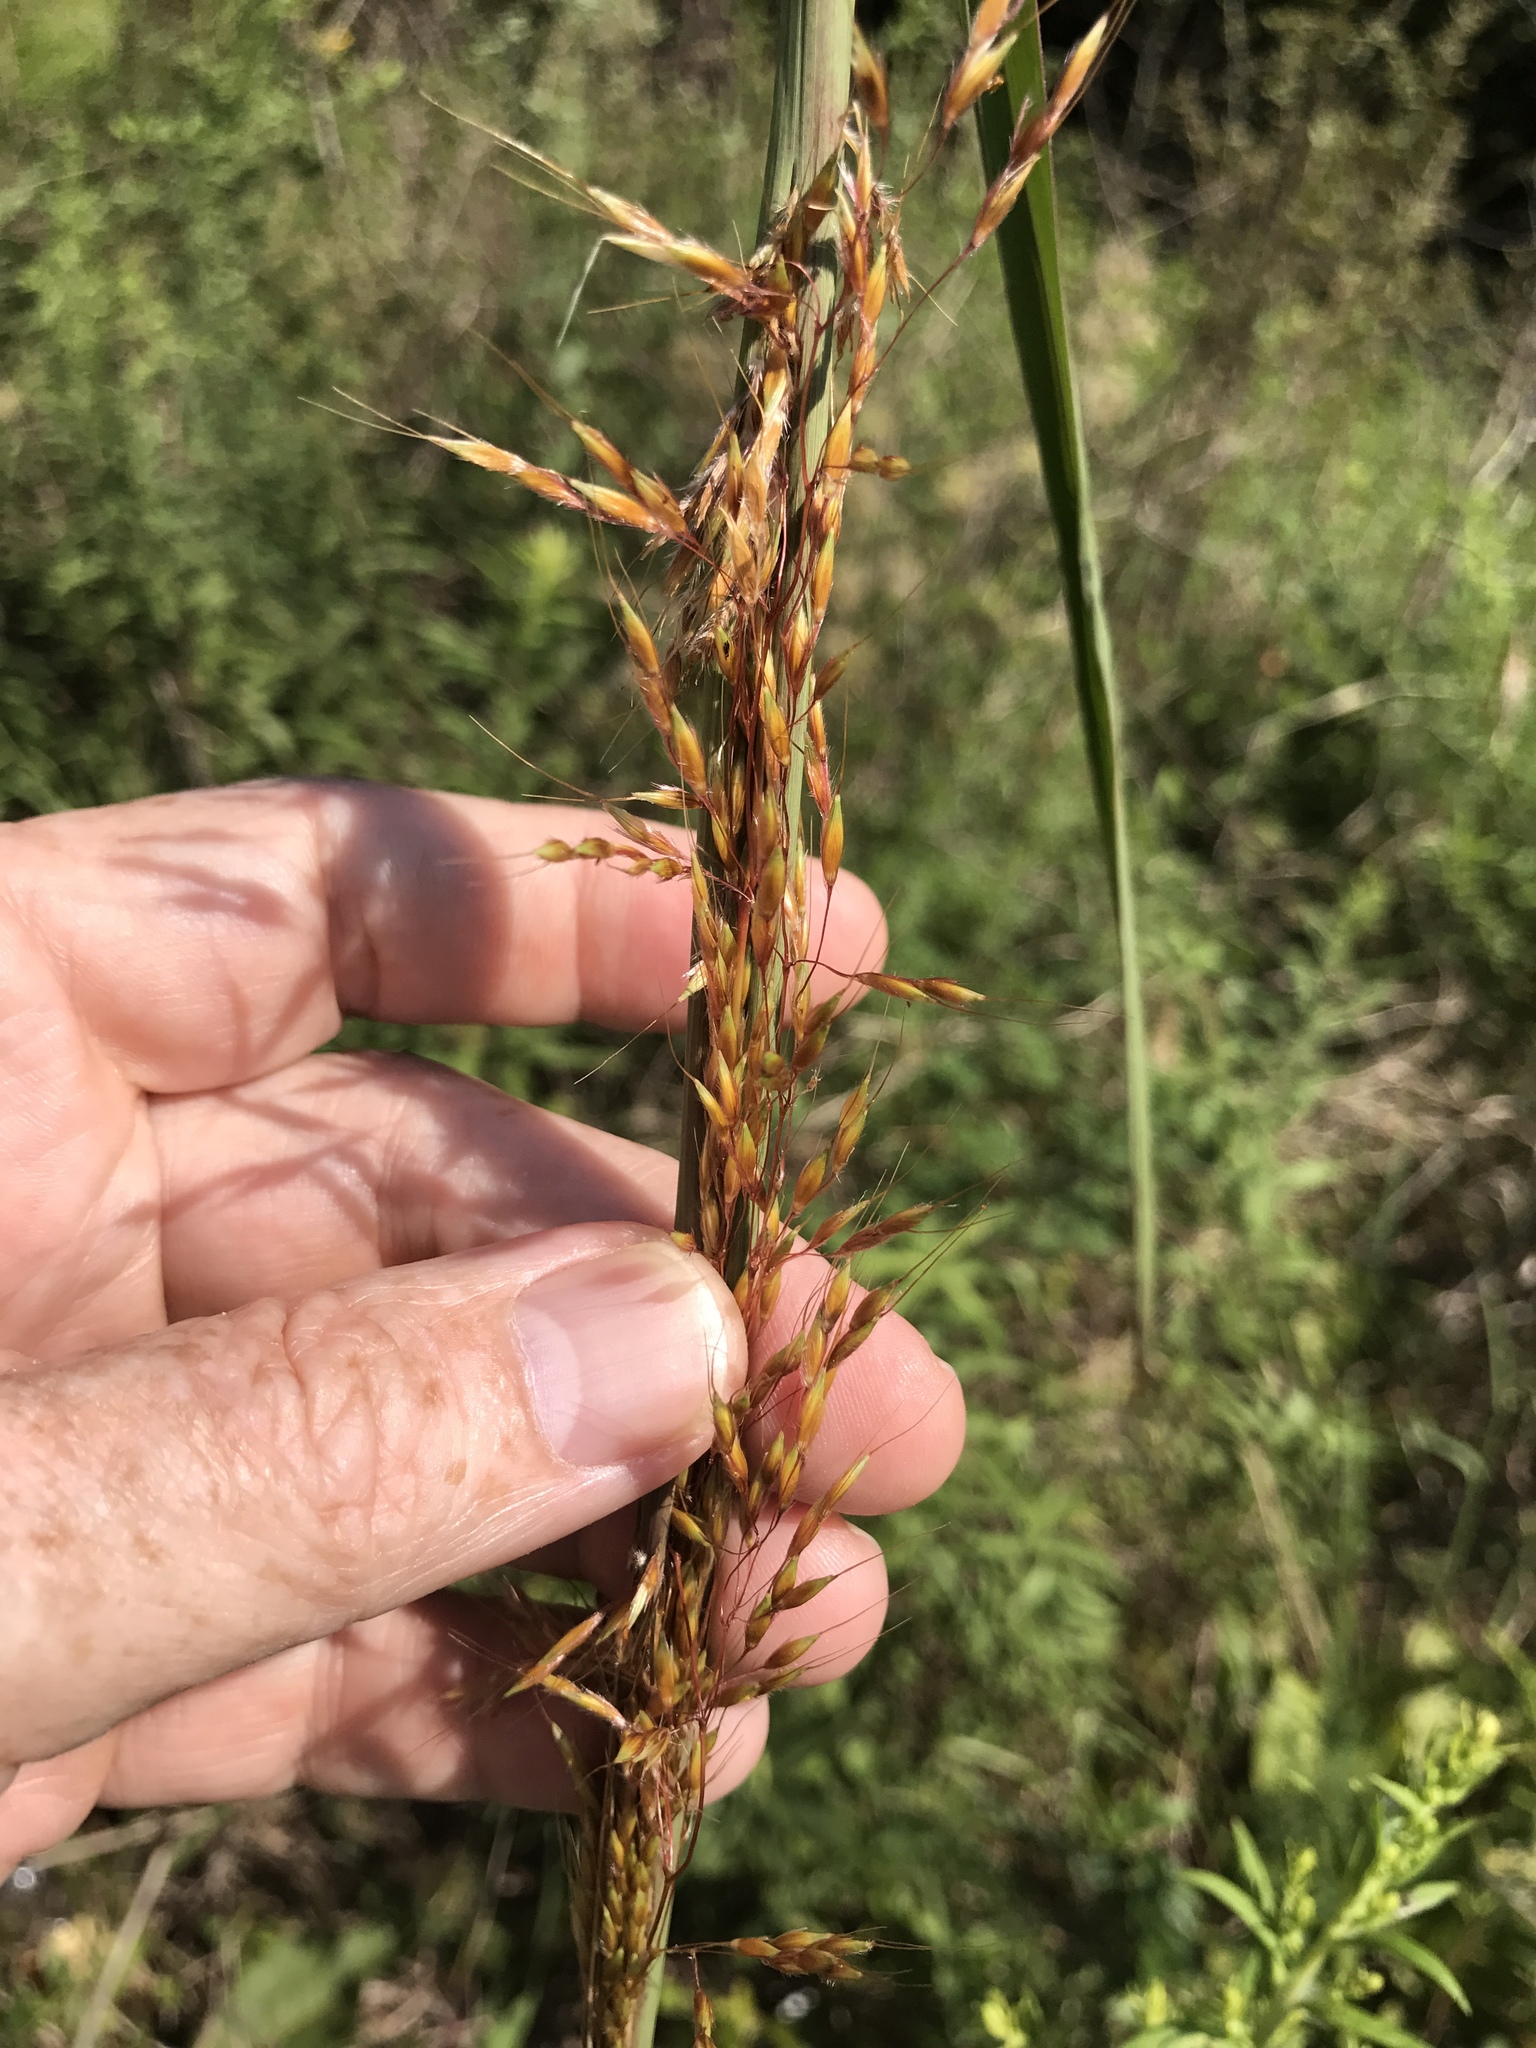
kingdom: Plantae
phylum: Tracheophyta
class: Liliopsida
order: Poales
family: Poaceae
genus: Sorghastrum
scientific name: Sorghastrum nutans
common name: Indian grass
